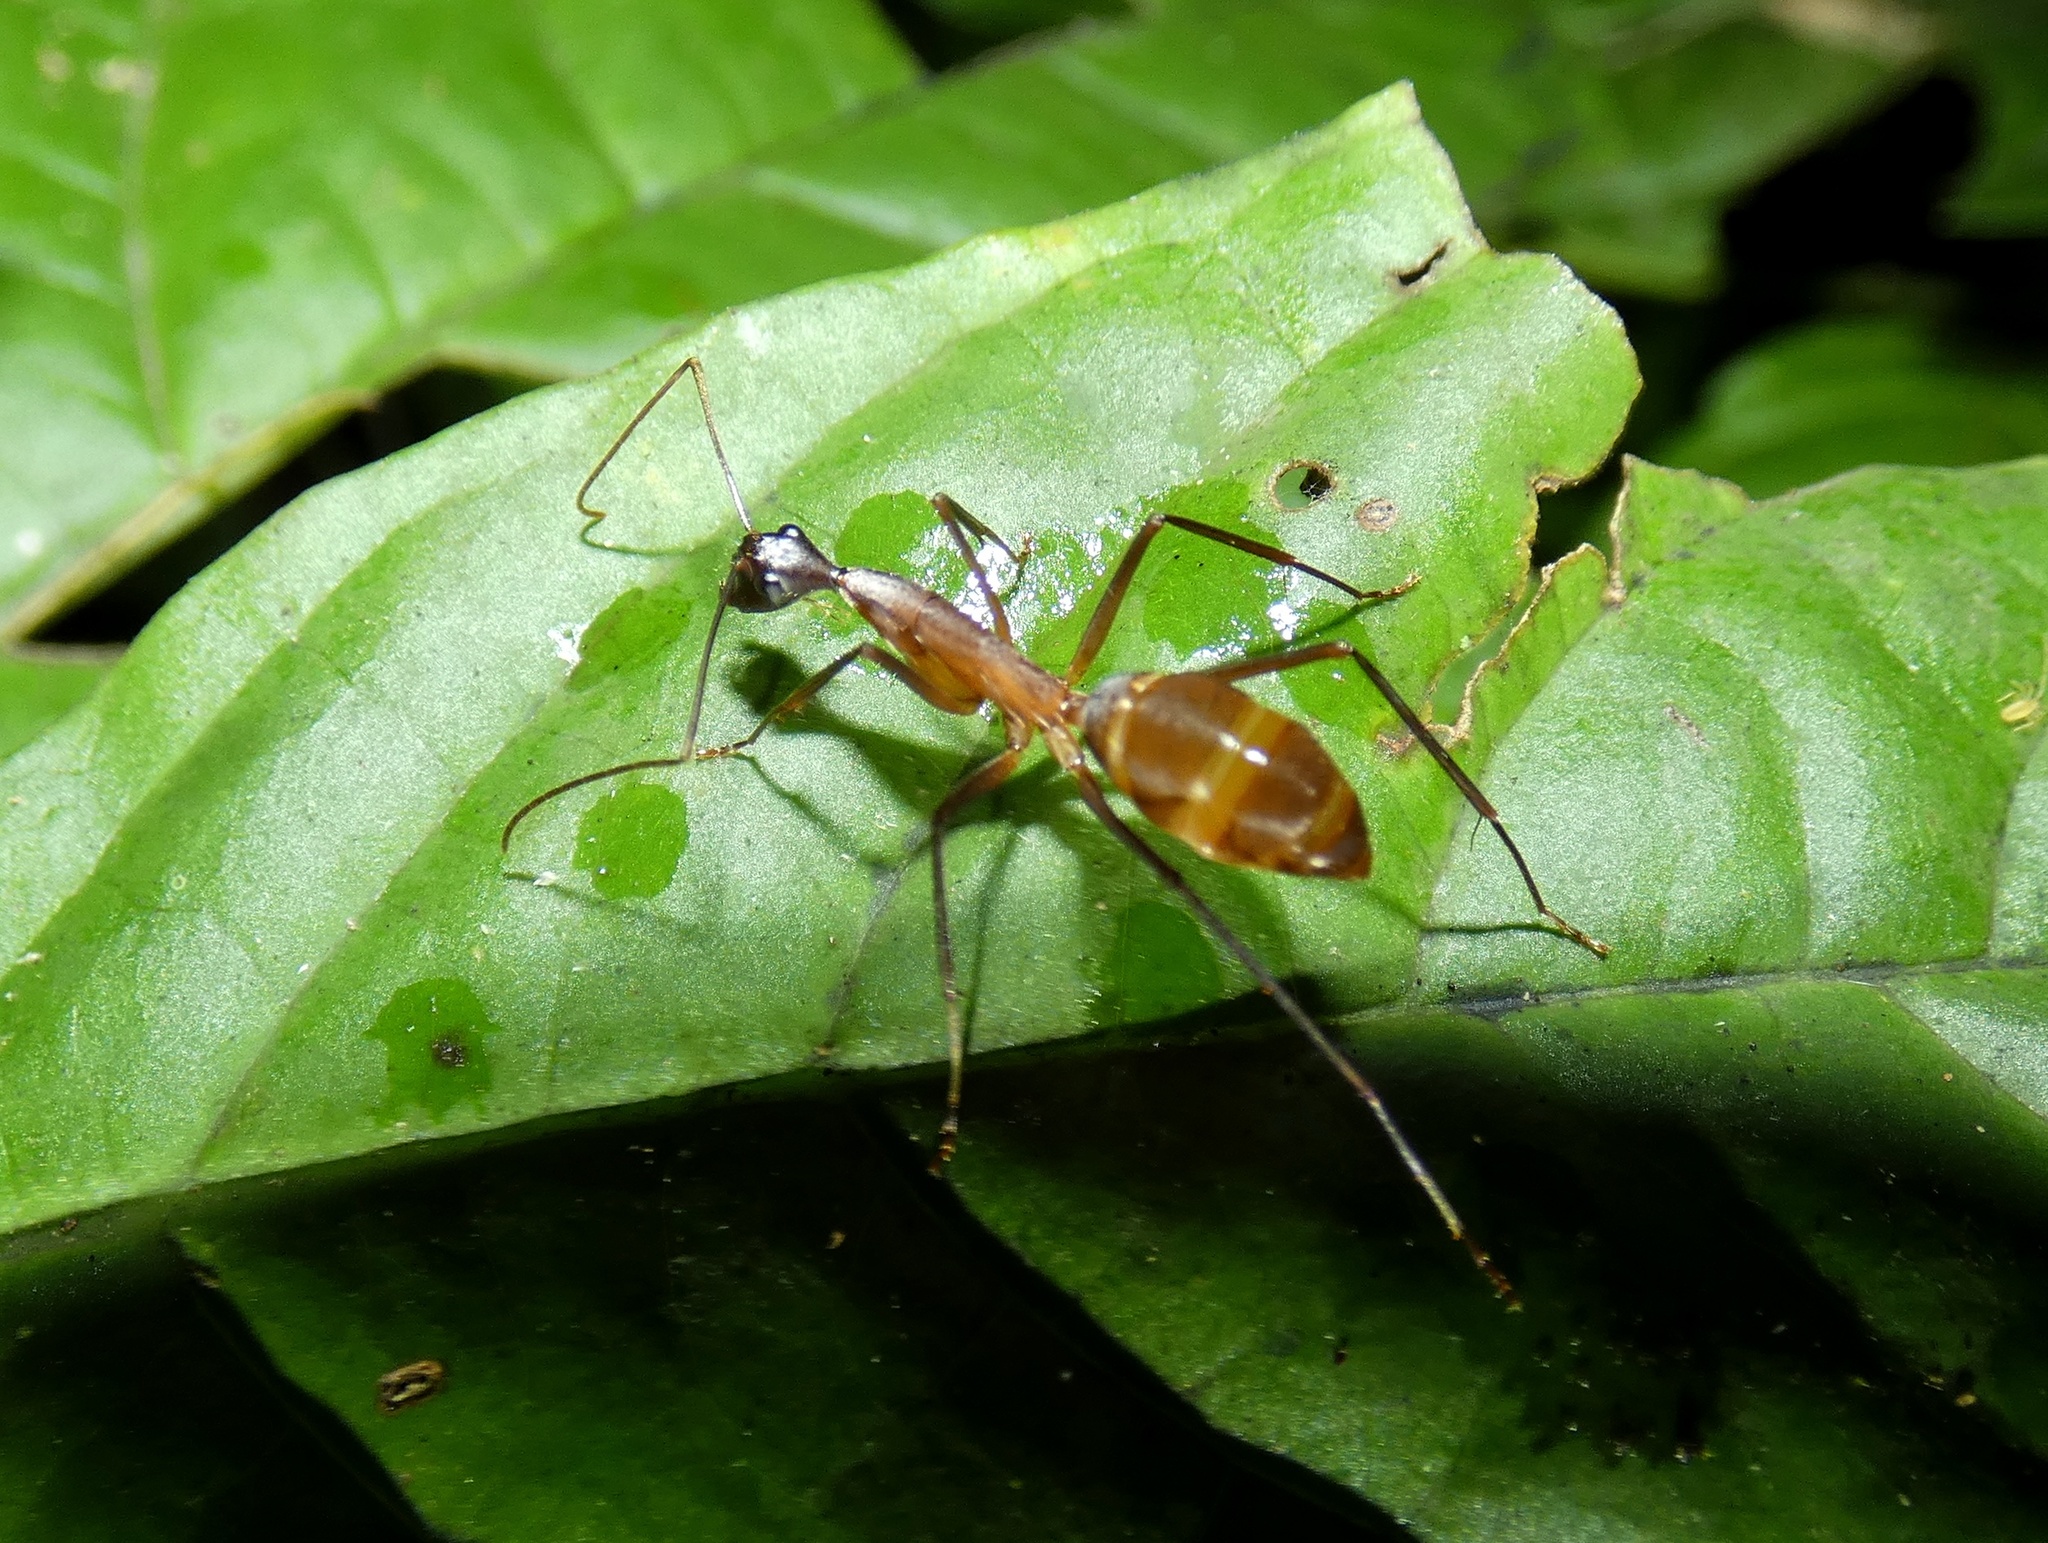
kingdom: Animalia
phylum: Arthropoda
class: Insecta
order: Hymenoptera
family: Formicidae
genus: Camponotus
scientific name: Camponotus ager
